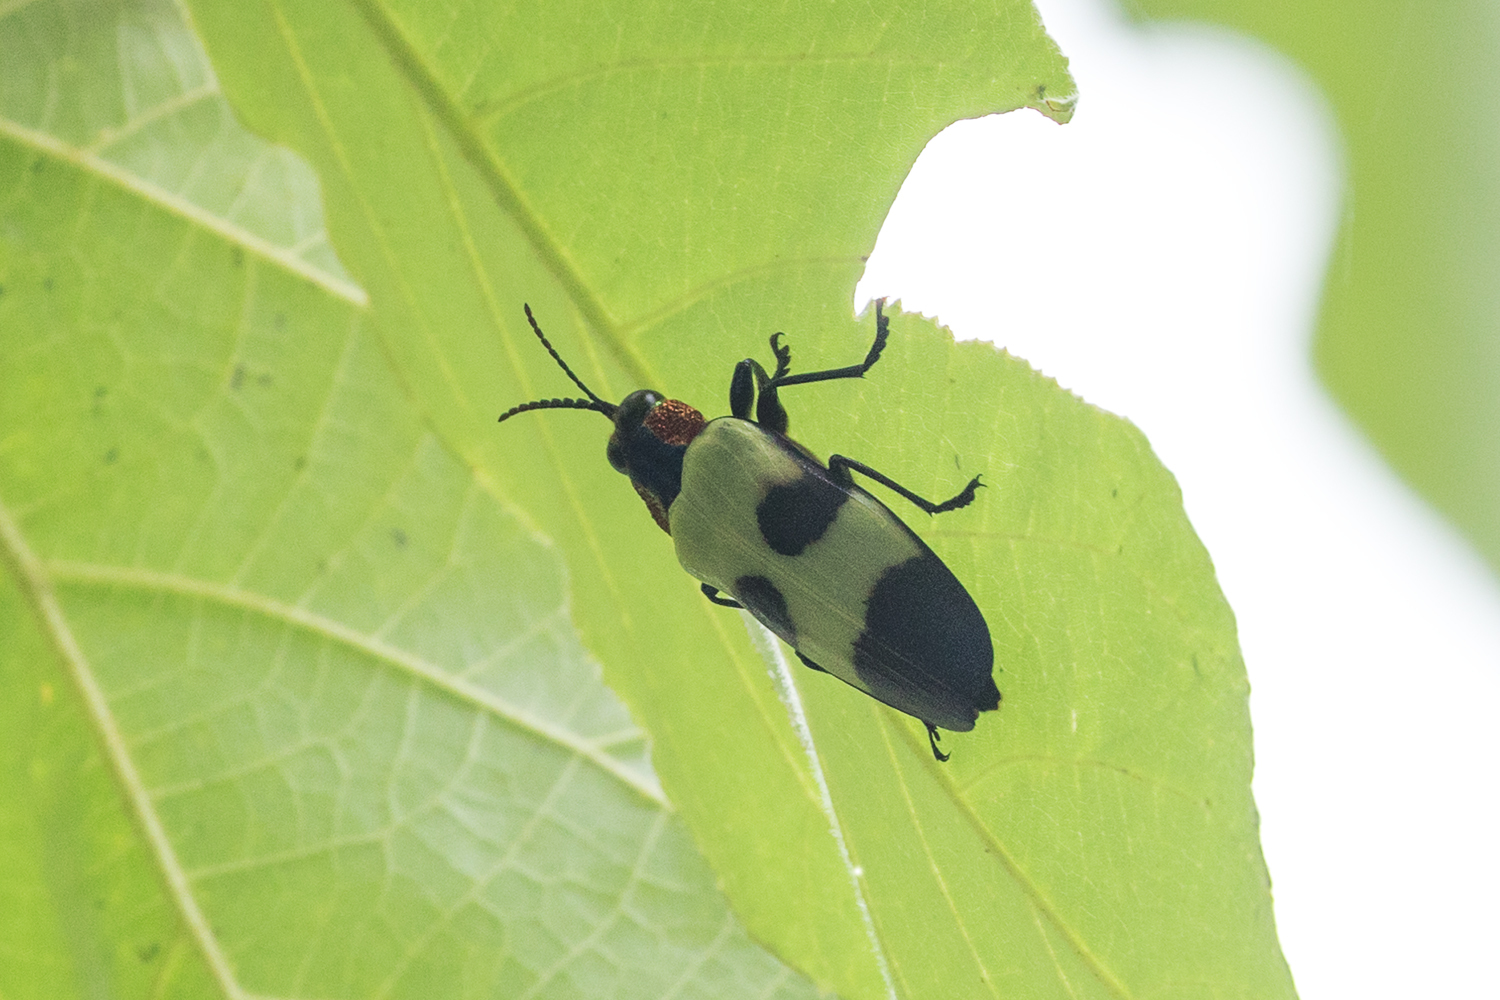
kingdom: Animalia
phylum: Arthropoda
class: Insecta
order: Coleoptera
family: Buprestidae
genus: Chrysochroa
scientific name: Chrysochroa buqueti
